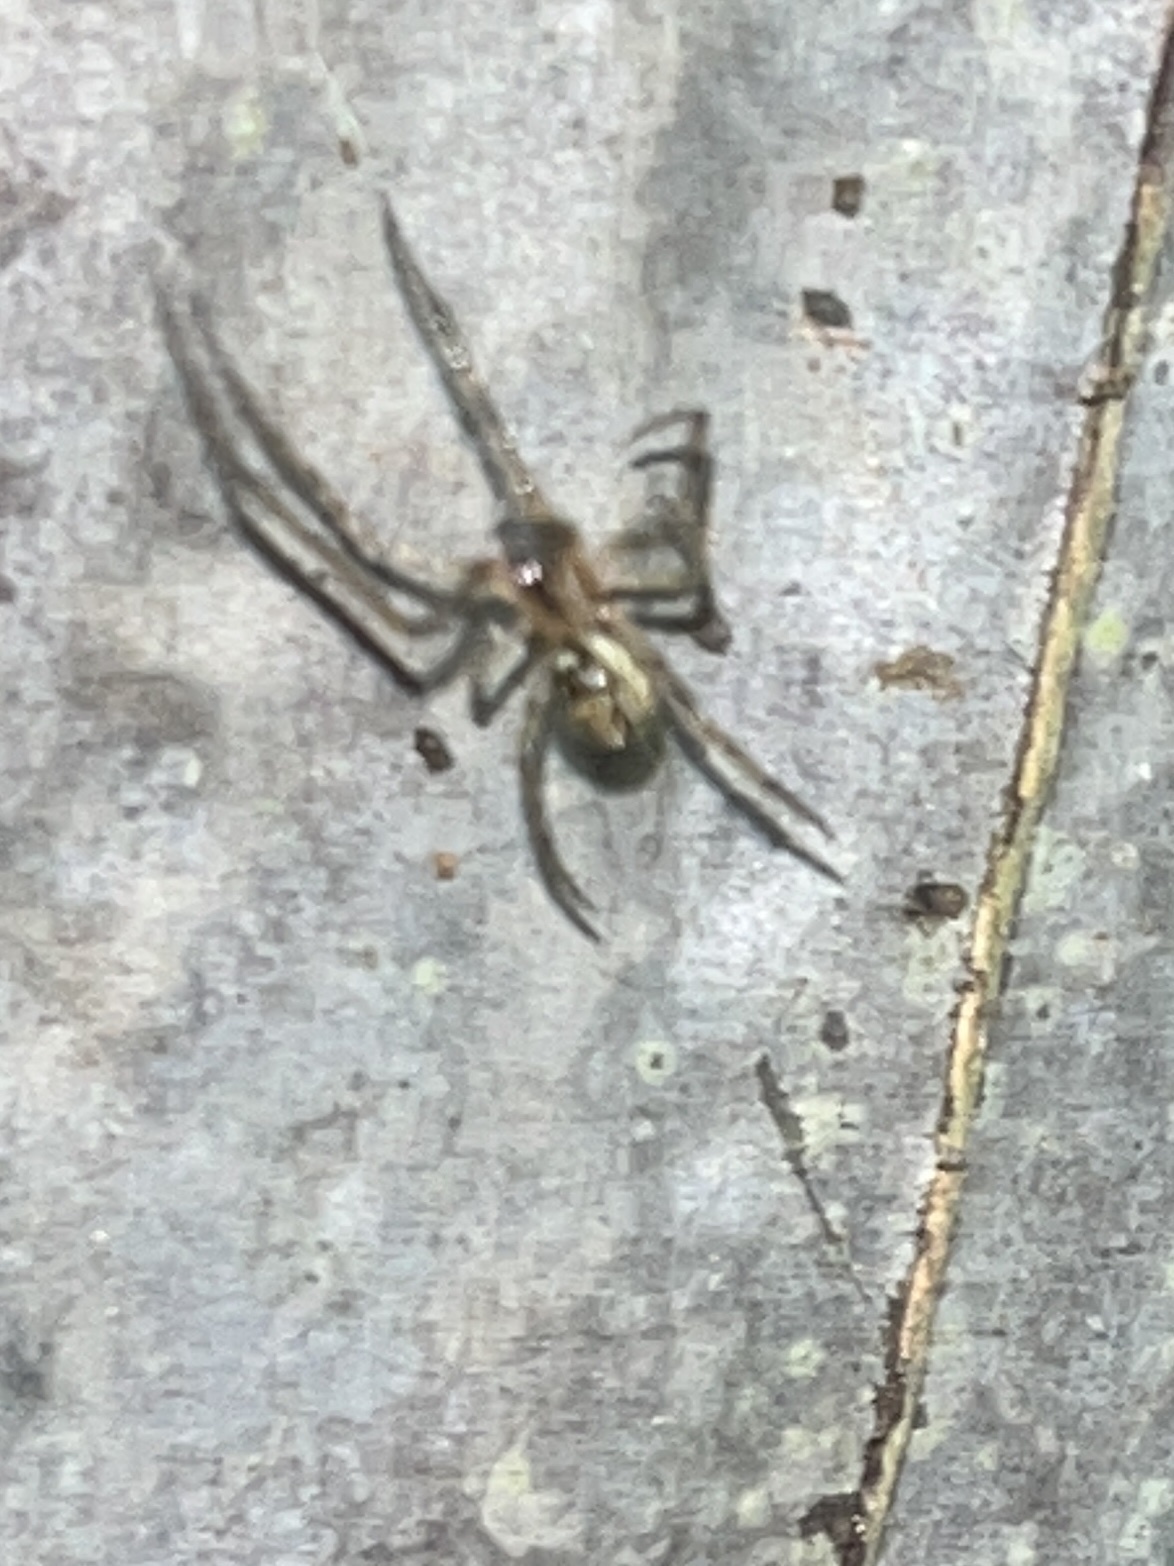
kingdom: Animalia
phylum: Arthropoda
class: Arachnida
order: Araneae
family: Theridiidae
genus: Latrodectus
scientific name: Latrodectus geometricus
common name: Brown widow spider
